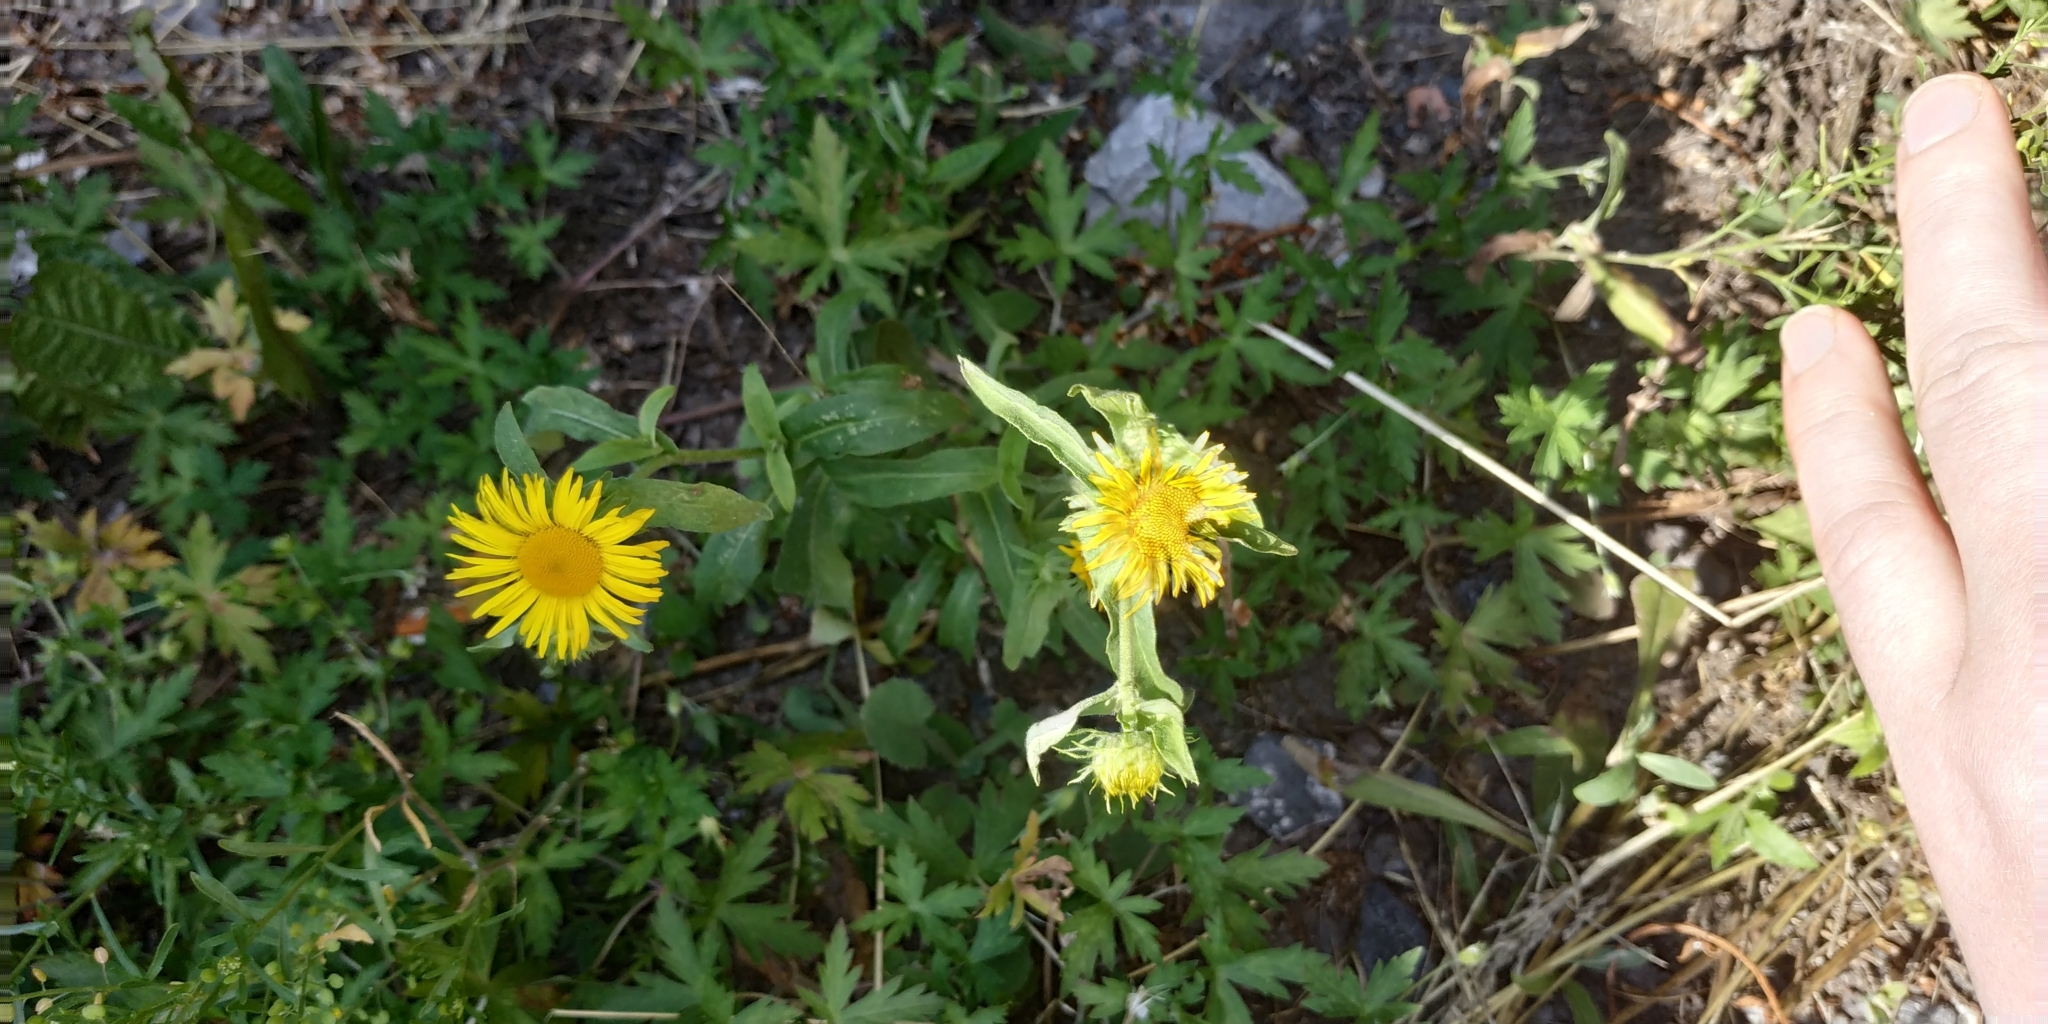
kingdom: Plantae
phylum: Tracheophyta
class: Magnoliopsida
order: Asterales
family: Asteraceae
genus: Pentanema
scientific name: Pentanema britannicum
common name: British elecampane
